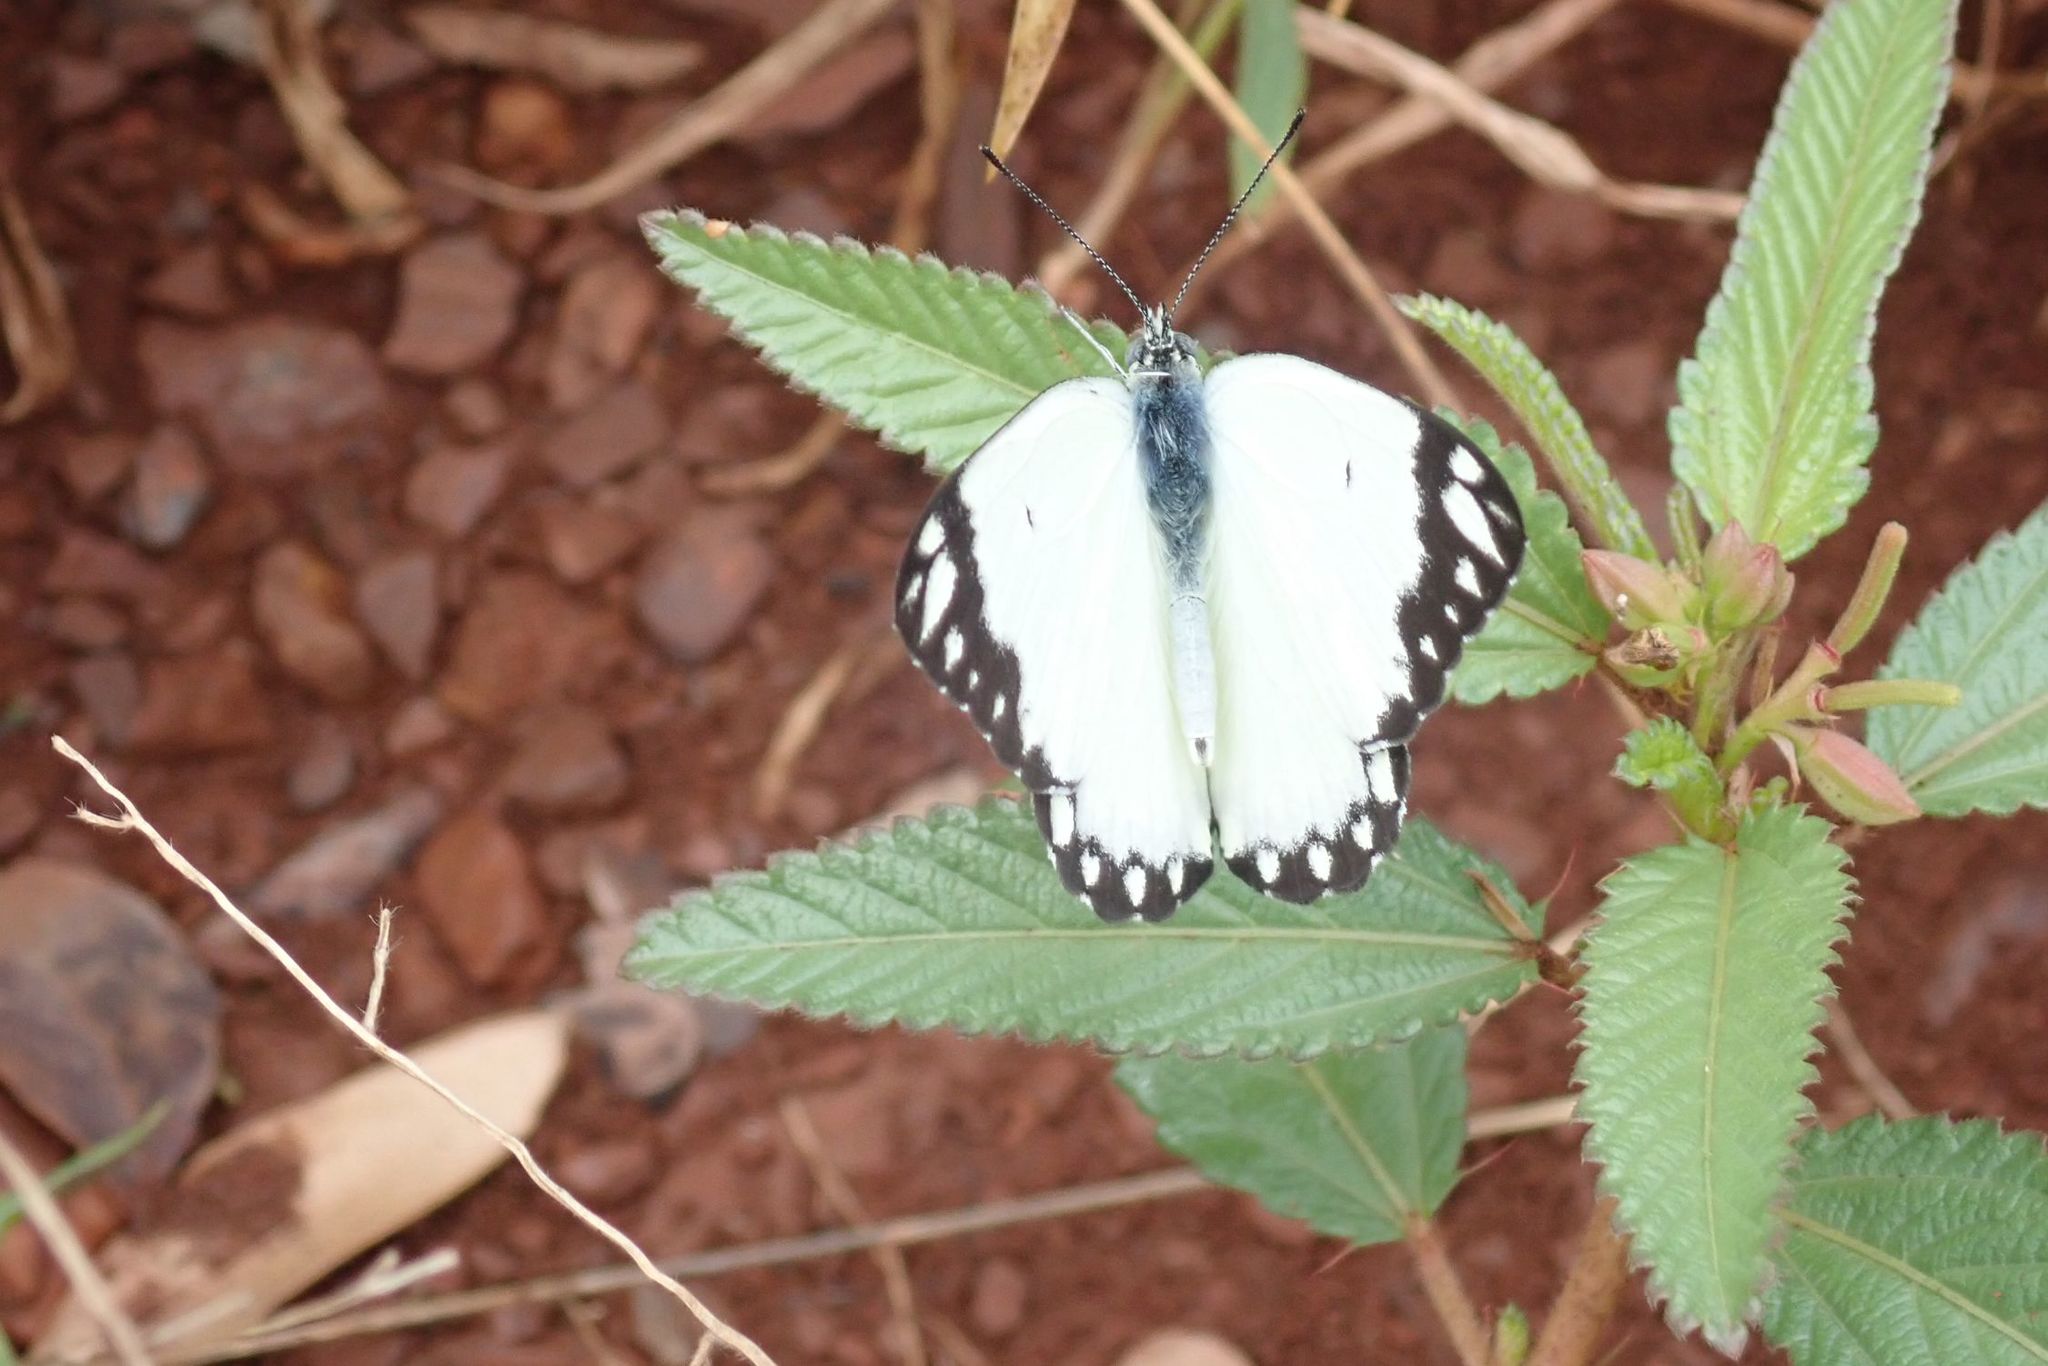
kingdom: Animalia
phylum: Arthropoda
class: Insecta
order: Lepidoptera
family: Pieridae
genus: Belenois
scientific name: Belenois creona
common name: African caper white
